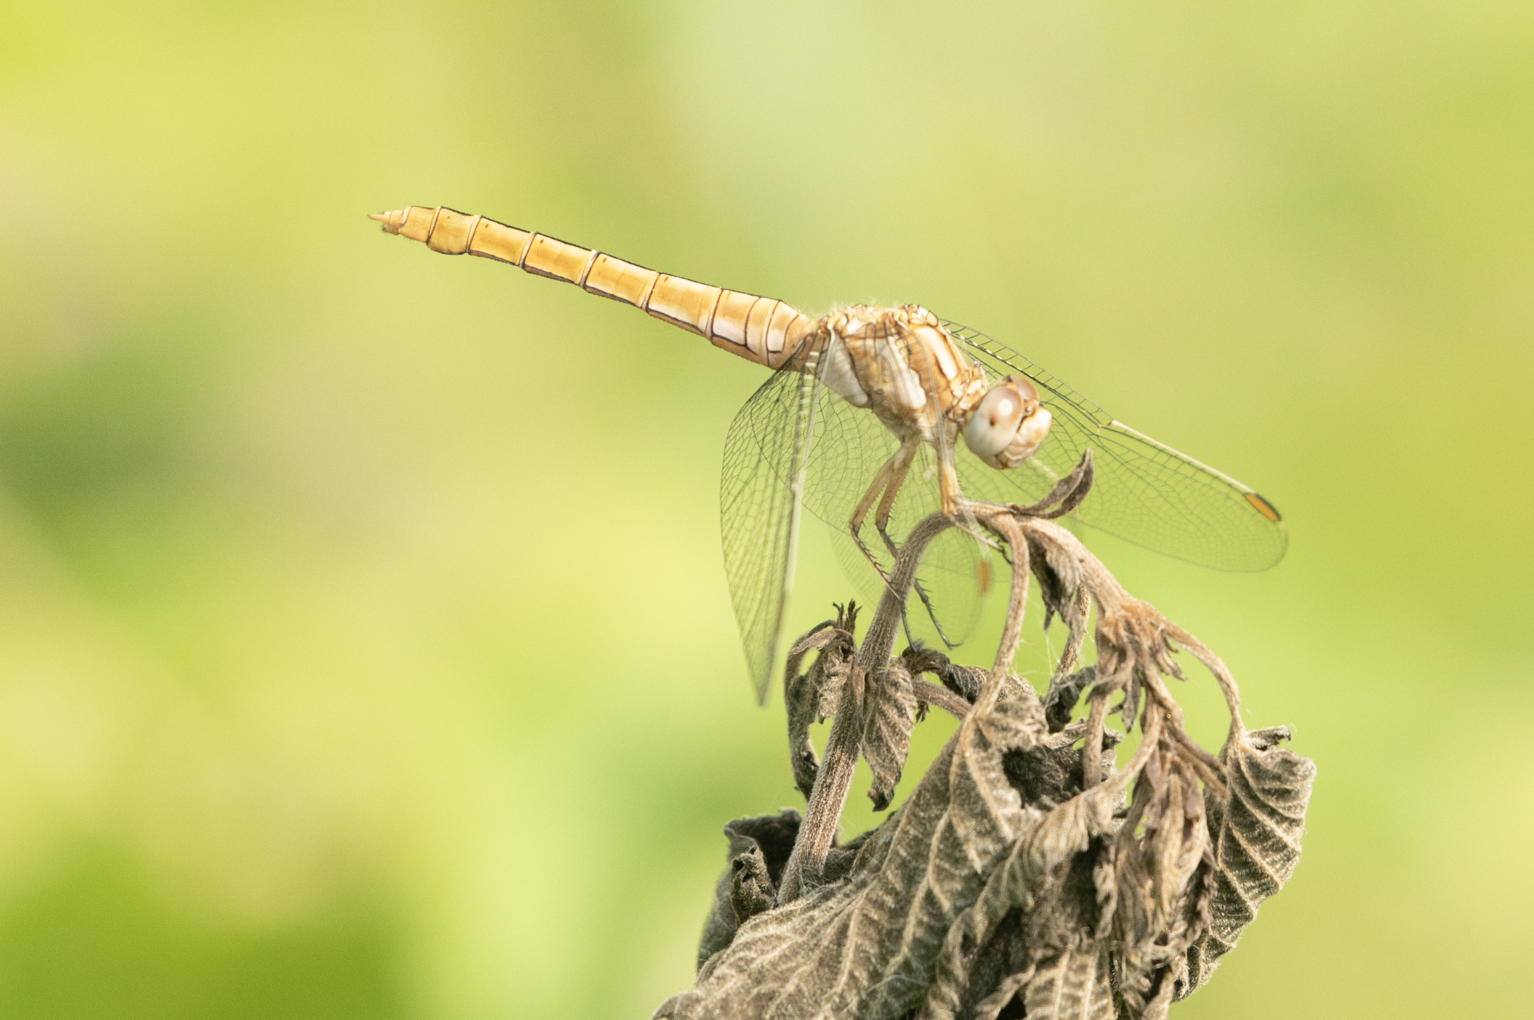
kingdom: Animalia
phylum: Arthropoda
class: Insecta
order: Odonata
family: Libellulidae
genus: Orthetrum
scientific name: Orthetrum brunneum
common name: Southern skimmer
